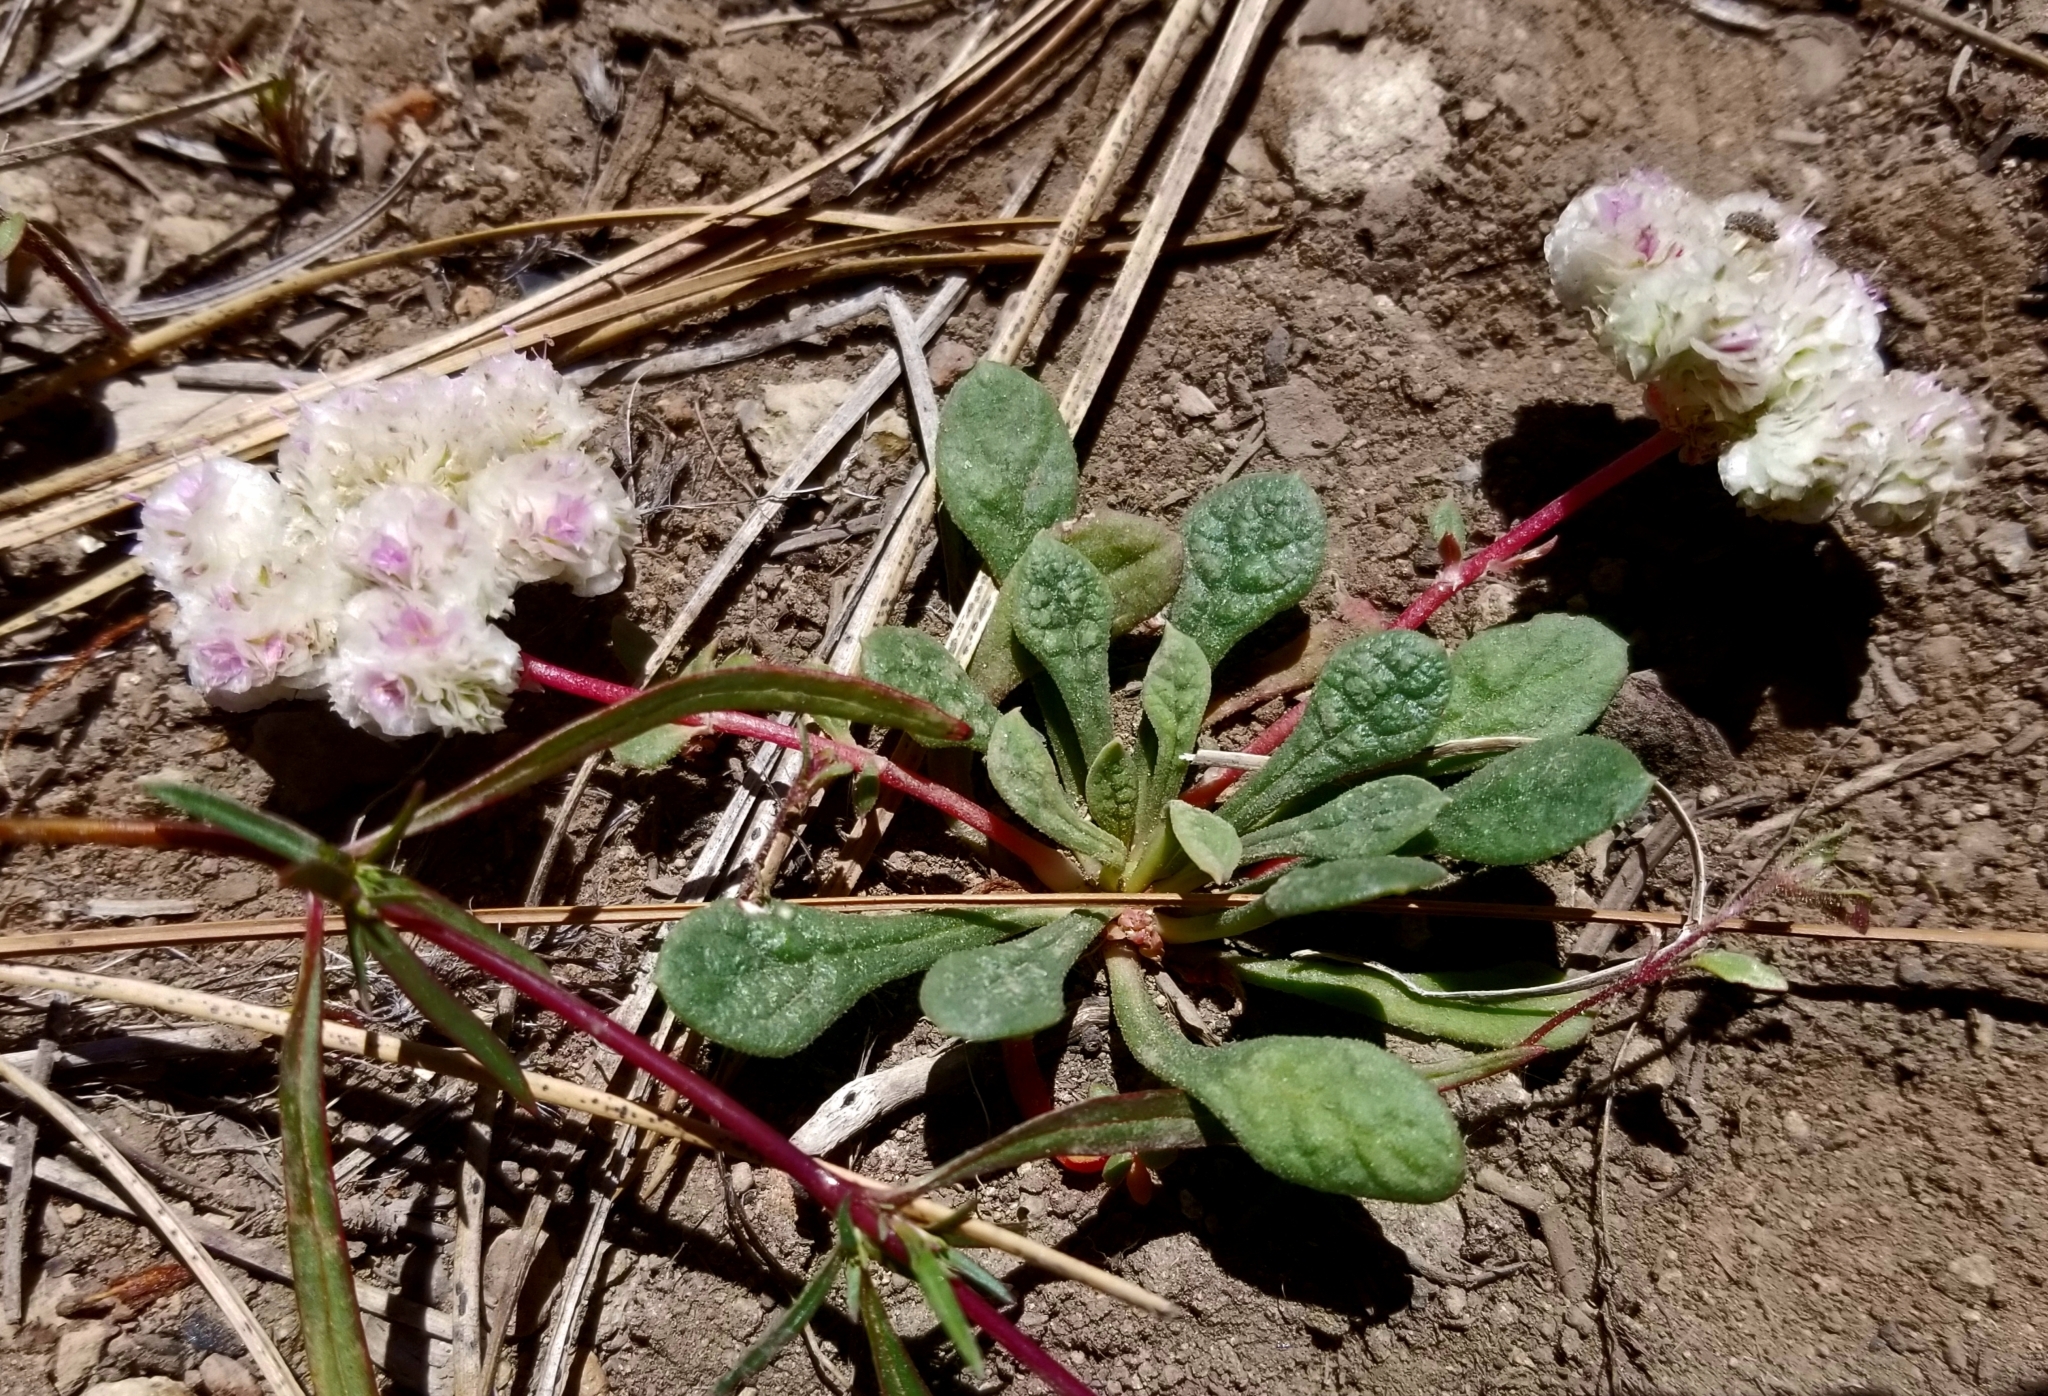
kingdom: Plantae
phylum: Tracheophyta
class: Magnoliopsida
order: Caryophyllales
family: Montiaceae
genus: Calyptridium
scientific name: Calyptridium monospermum
